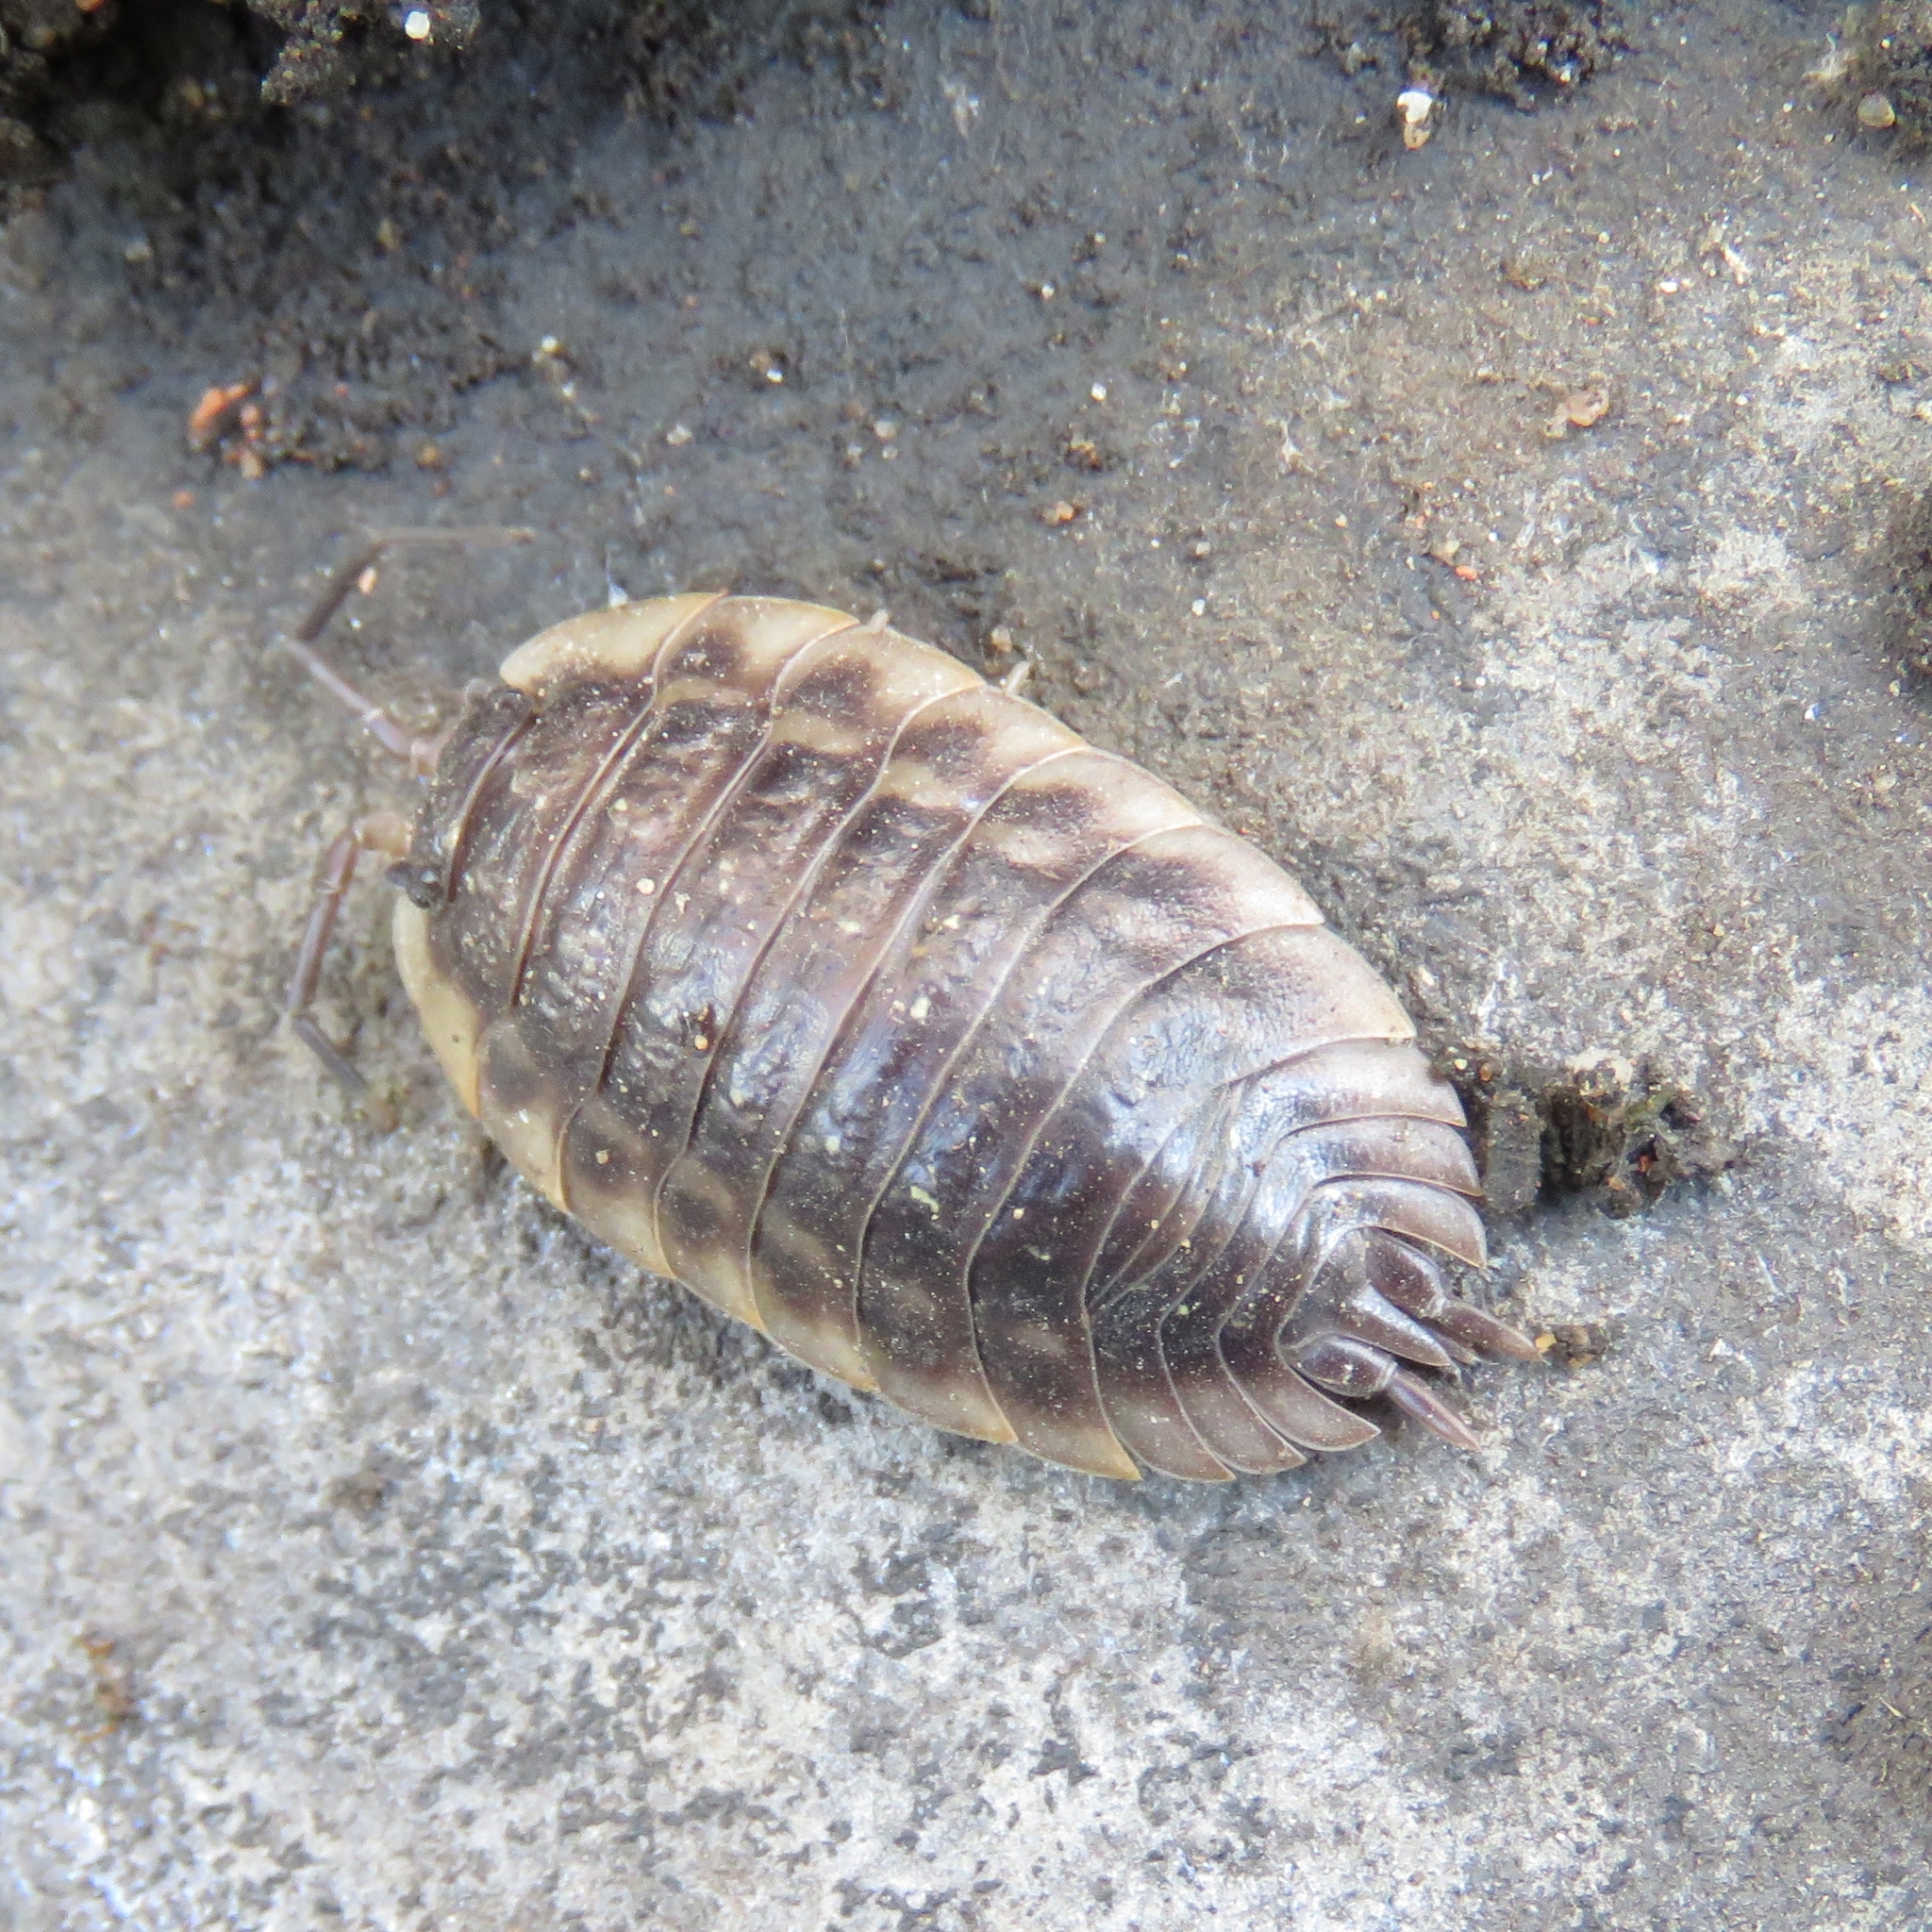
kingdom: Animalia
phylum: Arthropoda
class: Malacostraca
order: Isopoda
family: Oniscidae
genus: Oniscus
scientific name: Oniscus asellus
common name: Common shiny woodlouse
